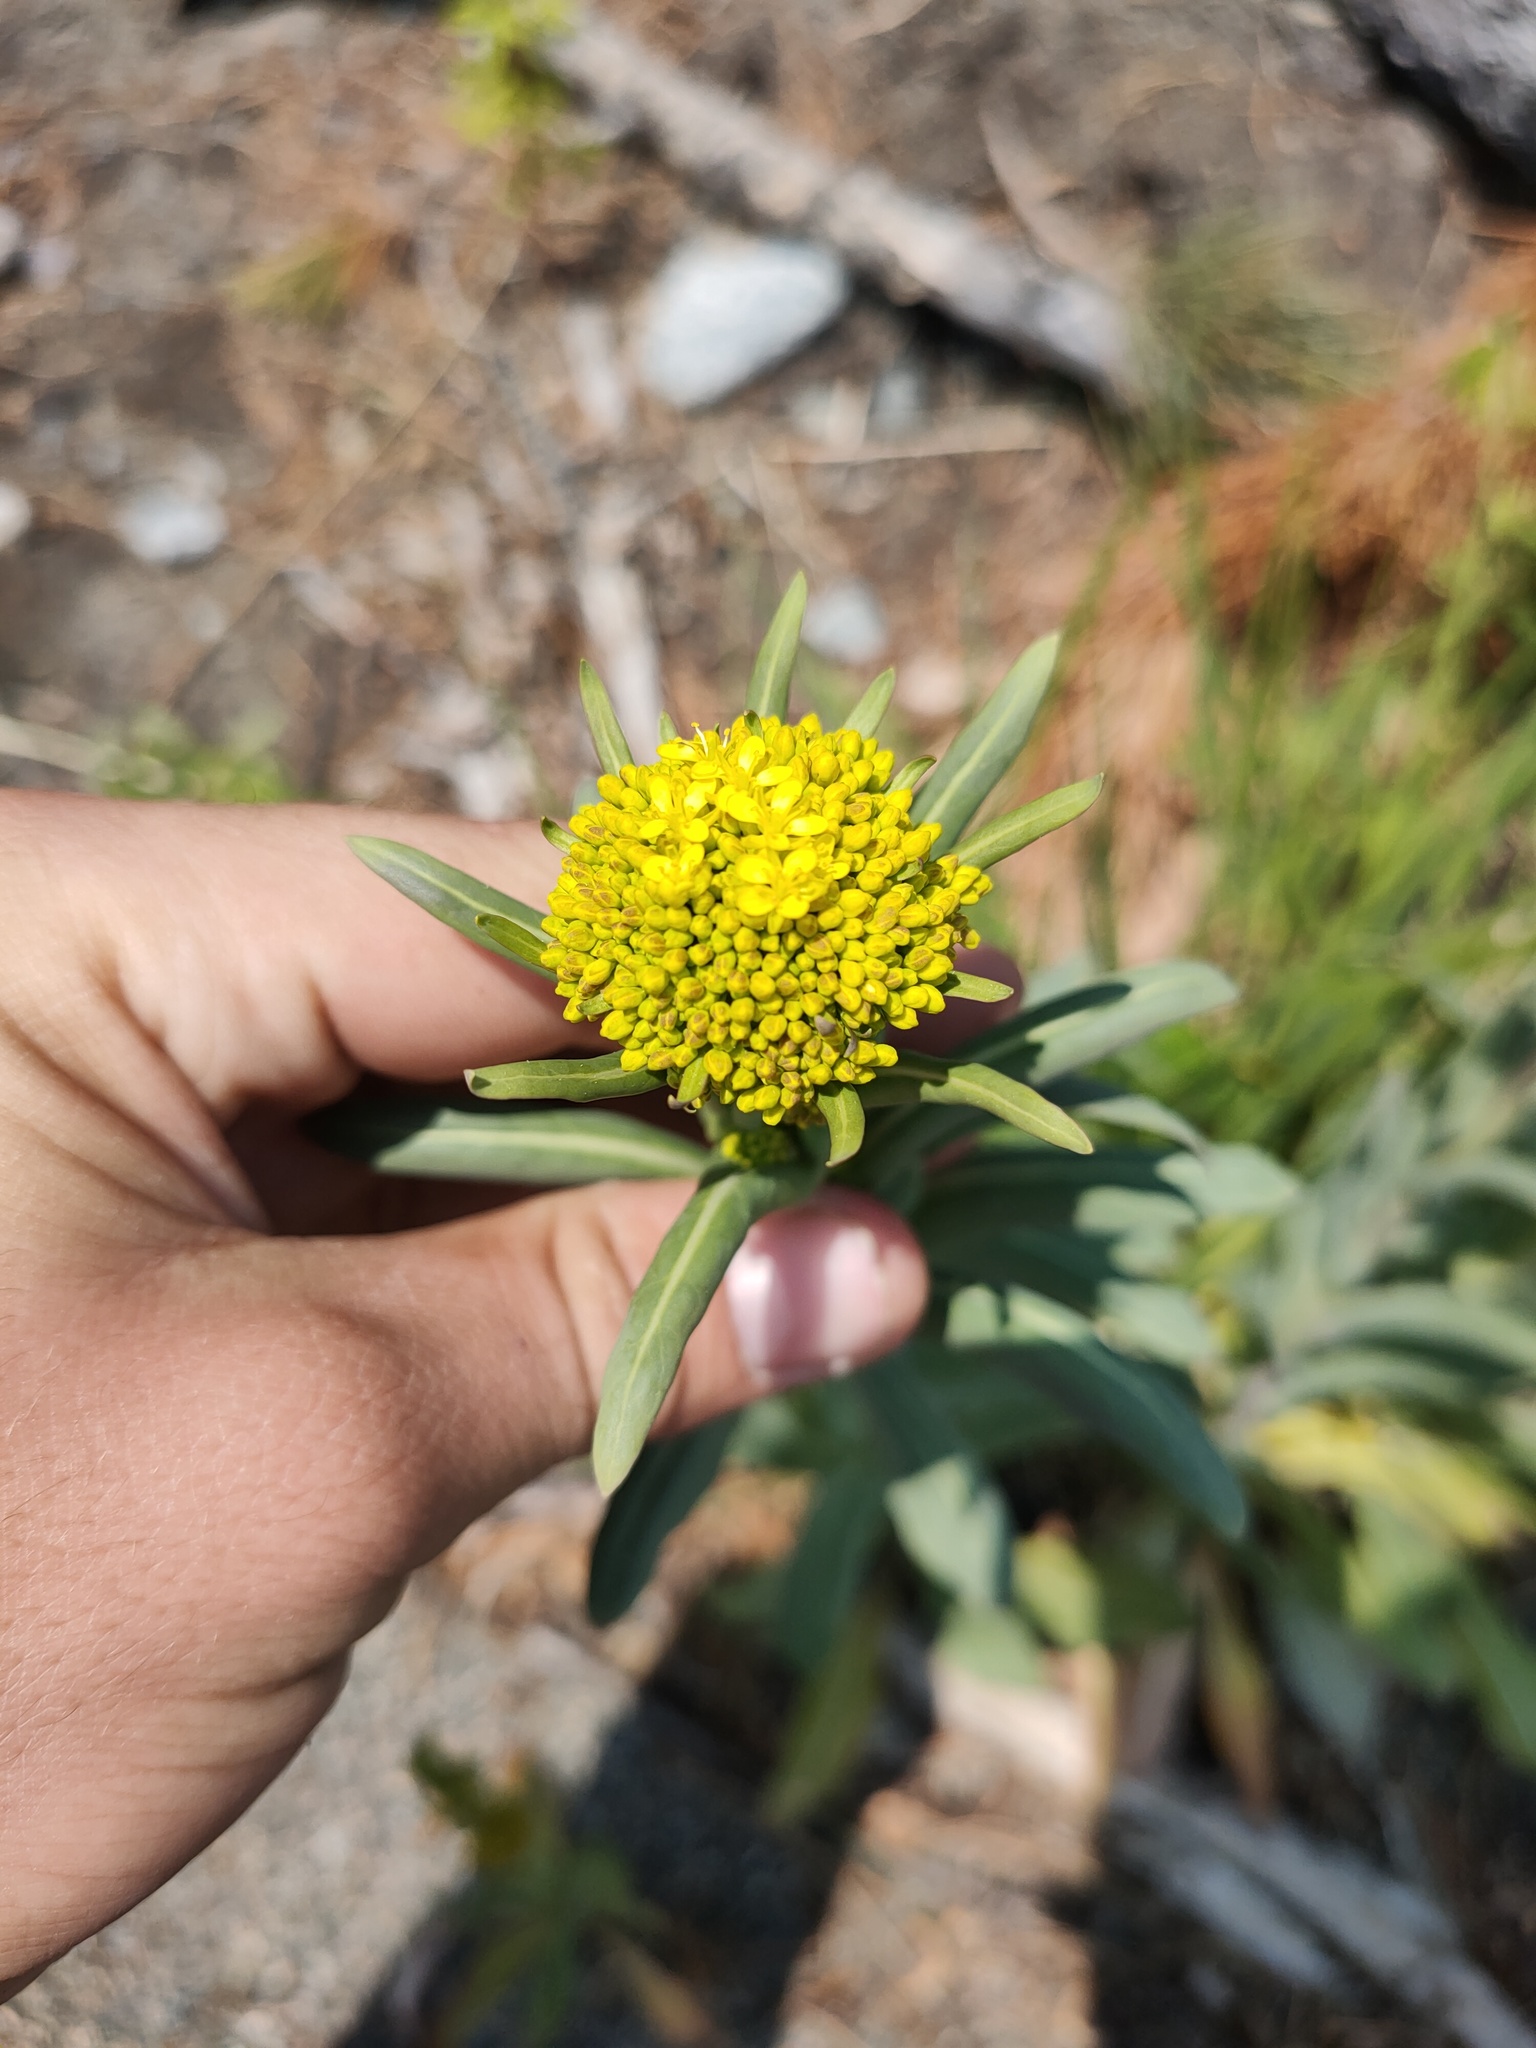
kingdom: Plantae
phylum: Tracheophyta
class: Magnoliopsida
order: Brassicales
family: Brassicaceae
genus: Isatis
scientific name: Isatis tinctoria
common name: Woad
